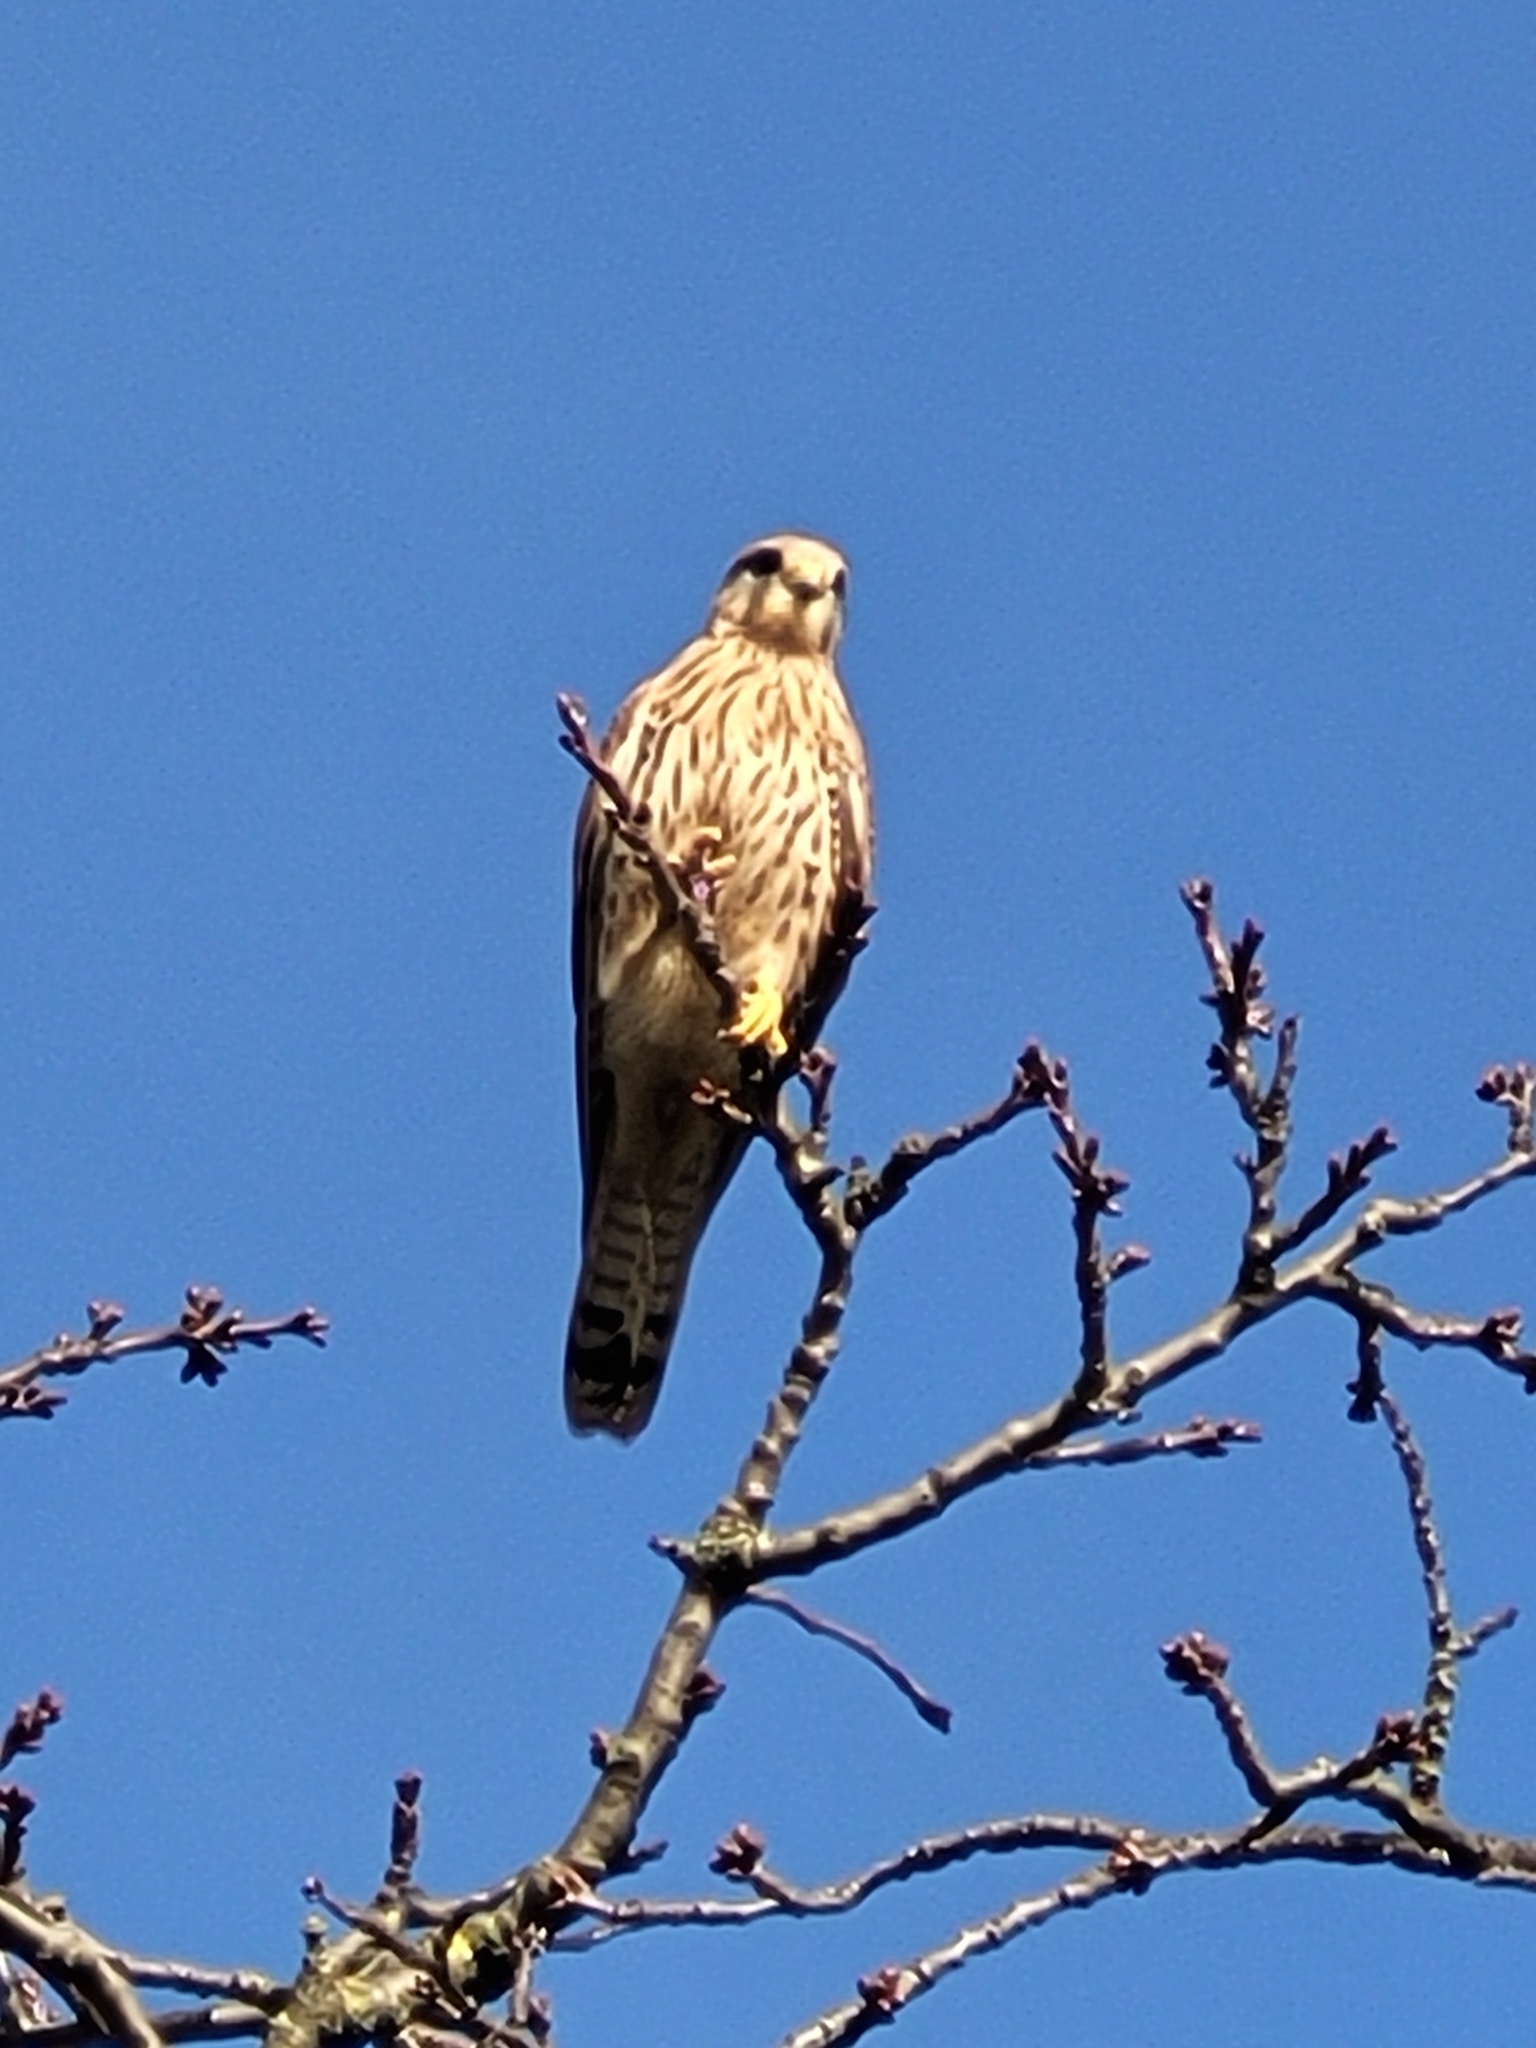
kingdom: Animalia
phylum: Chordata
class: Aves
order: Falconiformes
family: Falconidae
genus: Falco
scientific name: Falco tinnunculus
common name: Common kestrel
